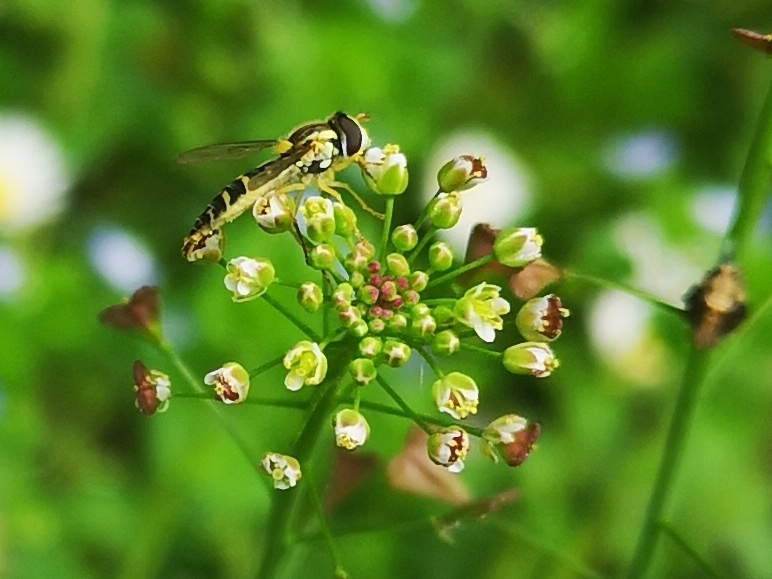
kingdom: Animalia
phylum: Arthropoda
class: Insecta
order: Diptera
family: Syrphidae
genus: Sphaerophoria
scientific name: Sphaerophoria
